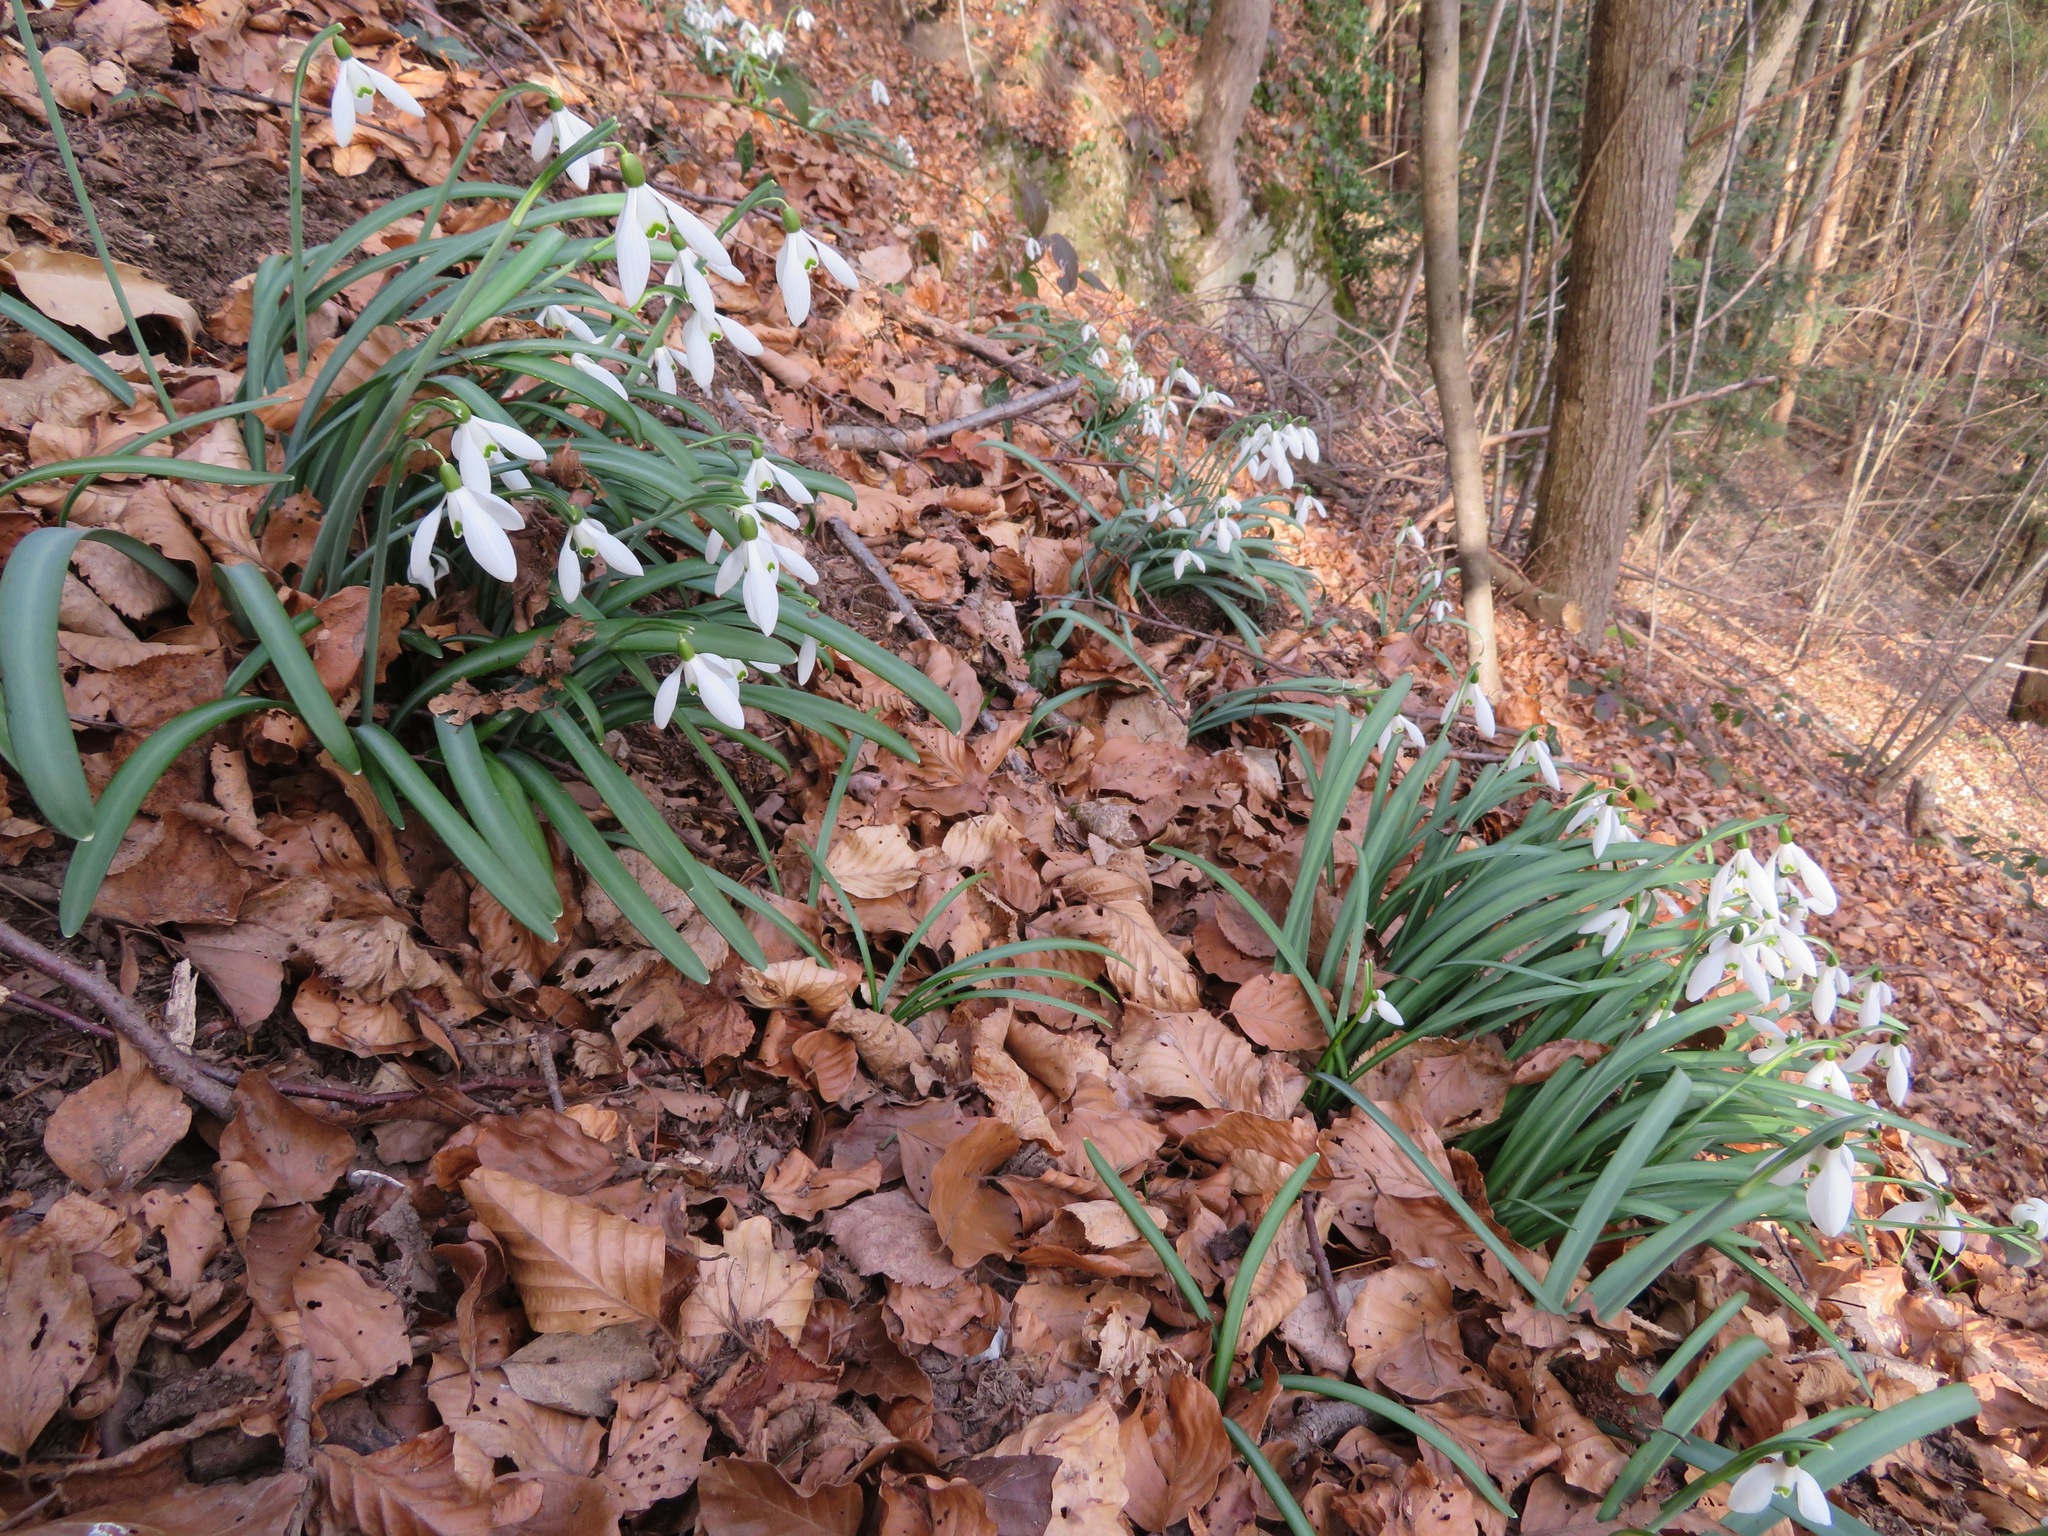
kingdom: Plantae
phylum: Tracheophyta
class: Liliopsida
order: Asparagales
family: Amaryllidaceae
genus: Galanthus
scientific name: Galanthus nivalis
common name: Snowdrop
